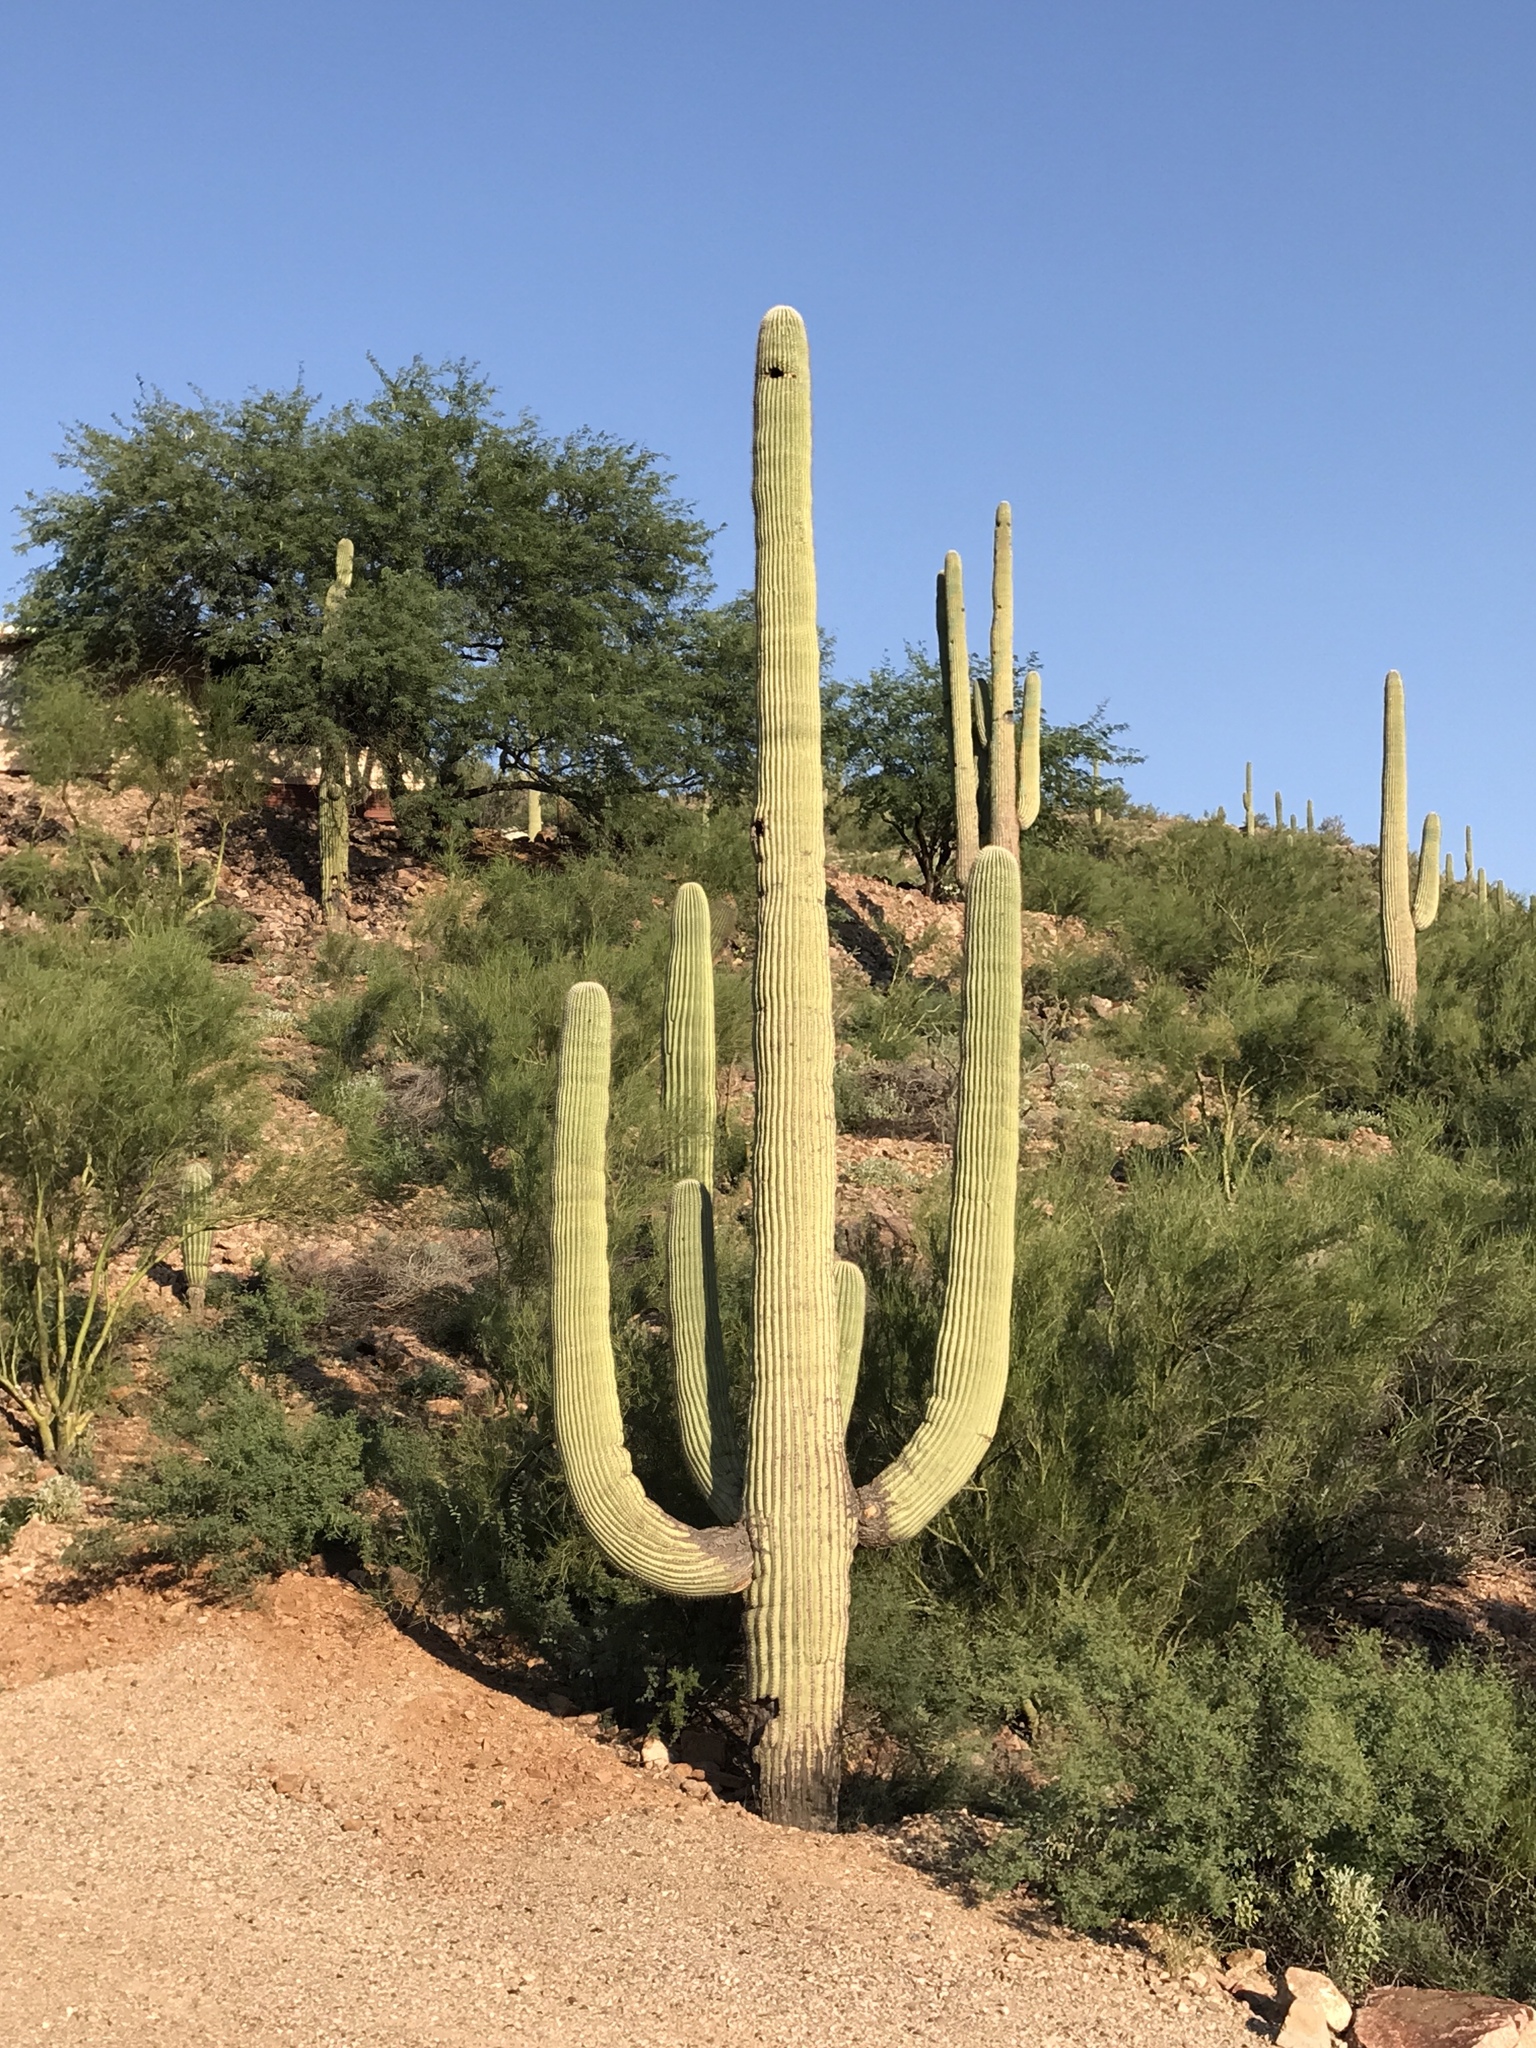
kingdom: Plantae
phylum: Tracheophyta
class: Magnoliopsida
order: Caryophyllales
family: Cactaceae
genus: Carnegiea
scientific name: Carnegiea gigantea
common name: Saguaro
